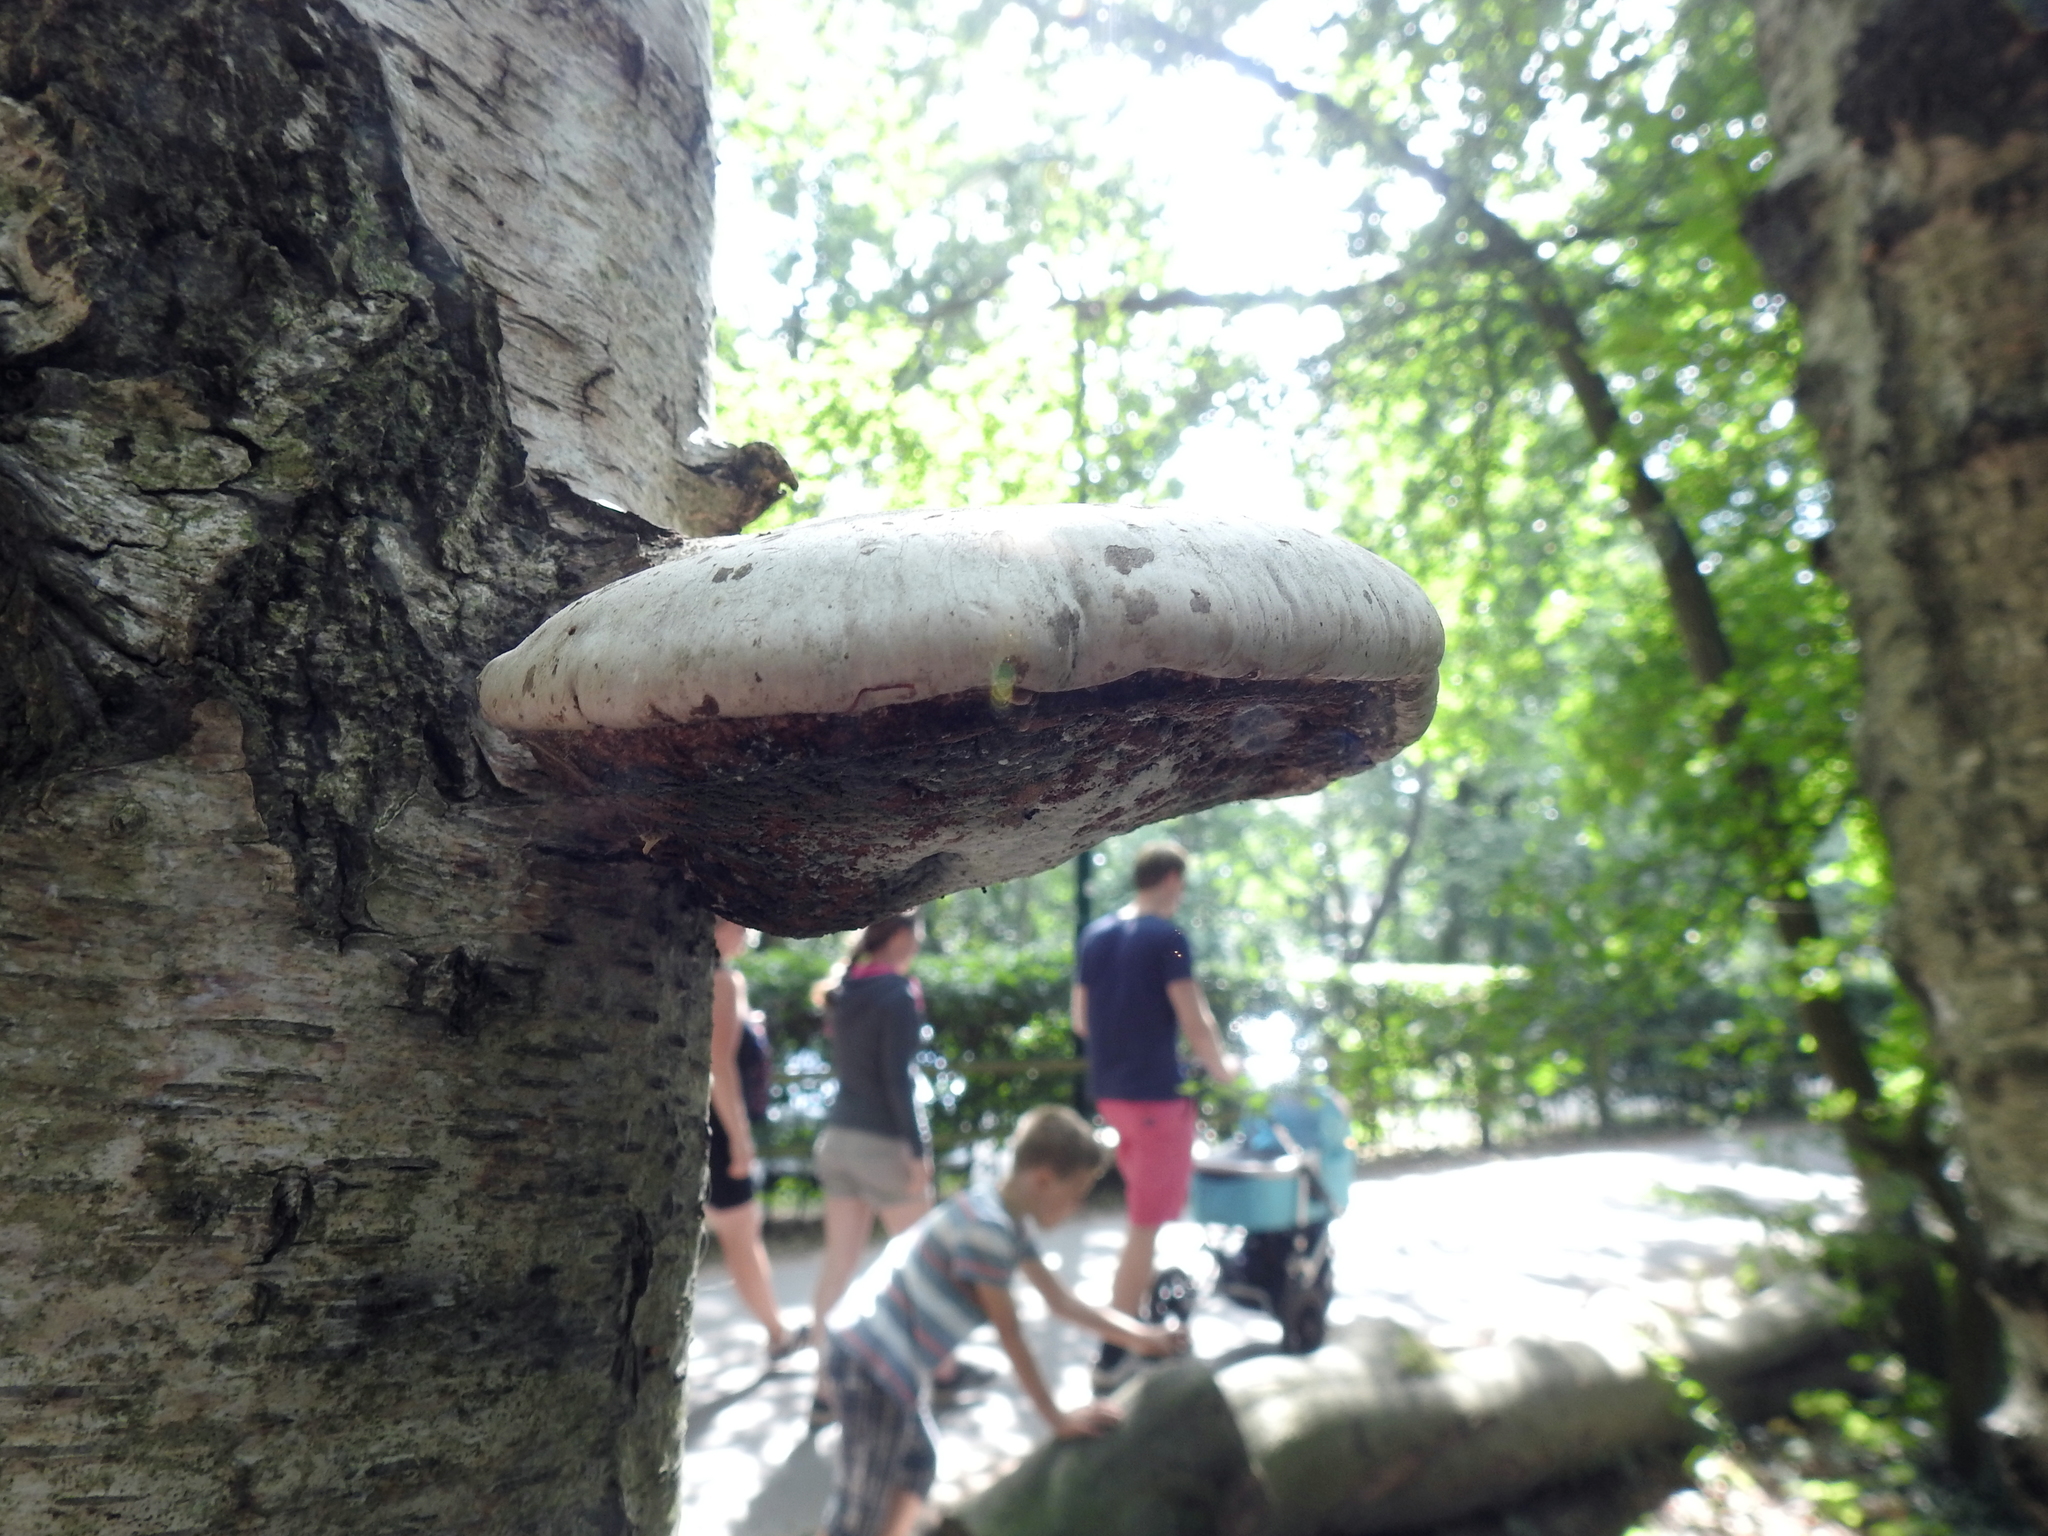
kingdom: Fungi
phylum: Basidiomycota
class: Agaricomycetes
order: Polyporales
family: Fomitopsidaceae
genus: Fomitopsis
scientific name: Fomitopsis betulina
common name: Birch polypore
